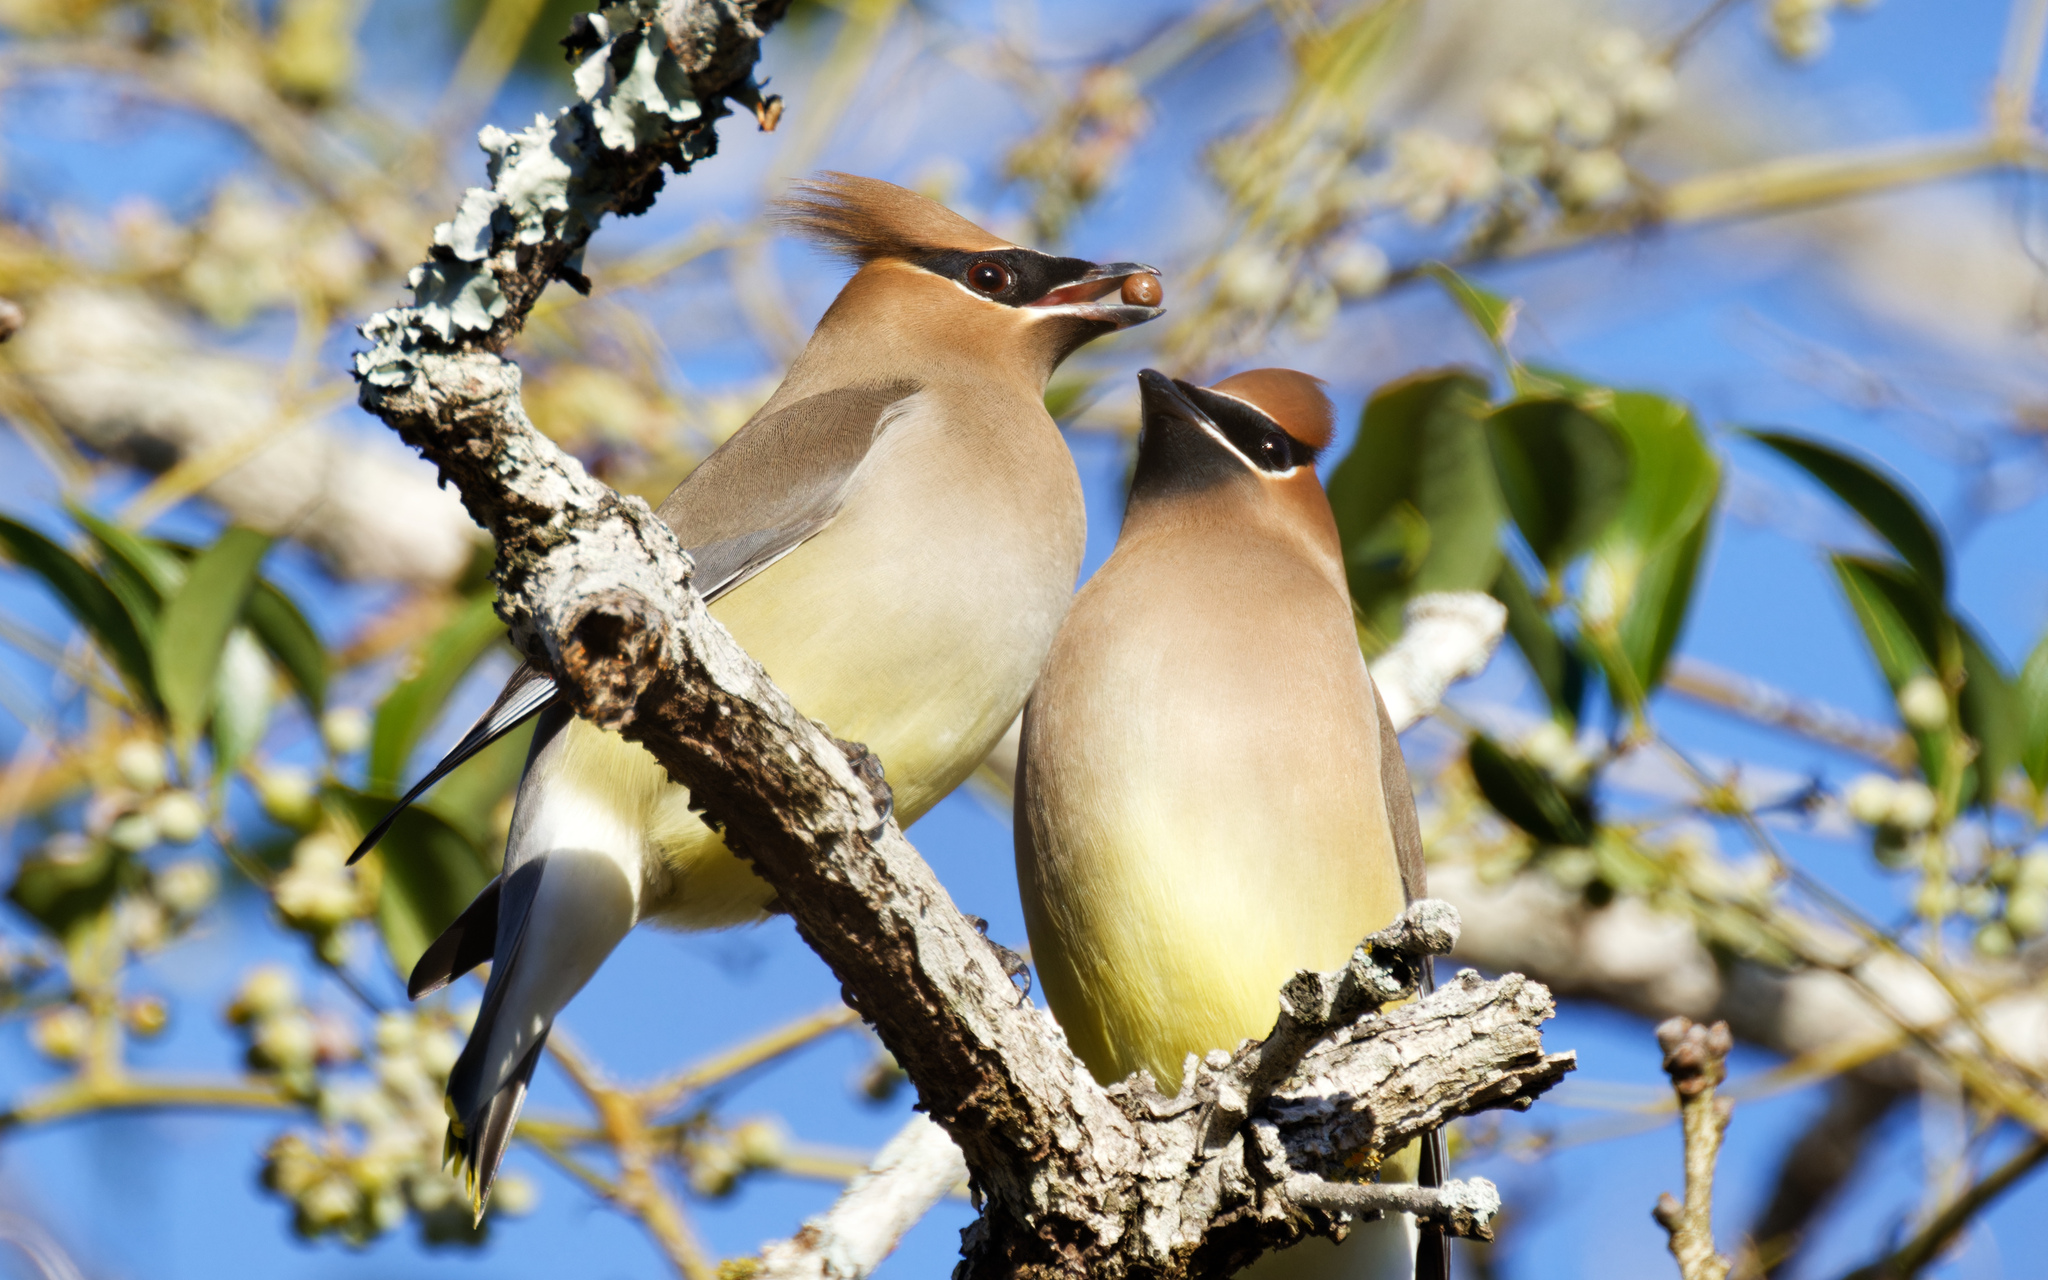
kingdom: Animalia
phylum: Chordata
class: Aves
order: Passeriformes
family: Bombycillidae
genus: Bombycilla
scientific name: Bombycilla cedrorum
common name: Cedar waxwing
